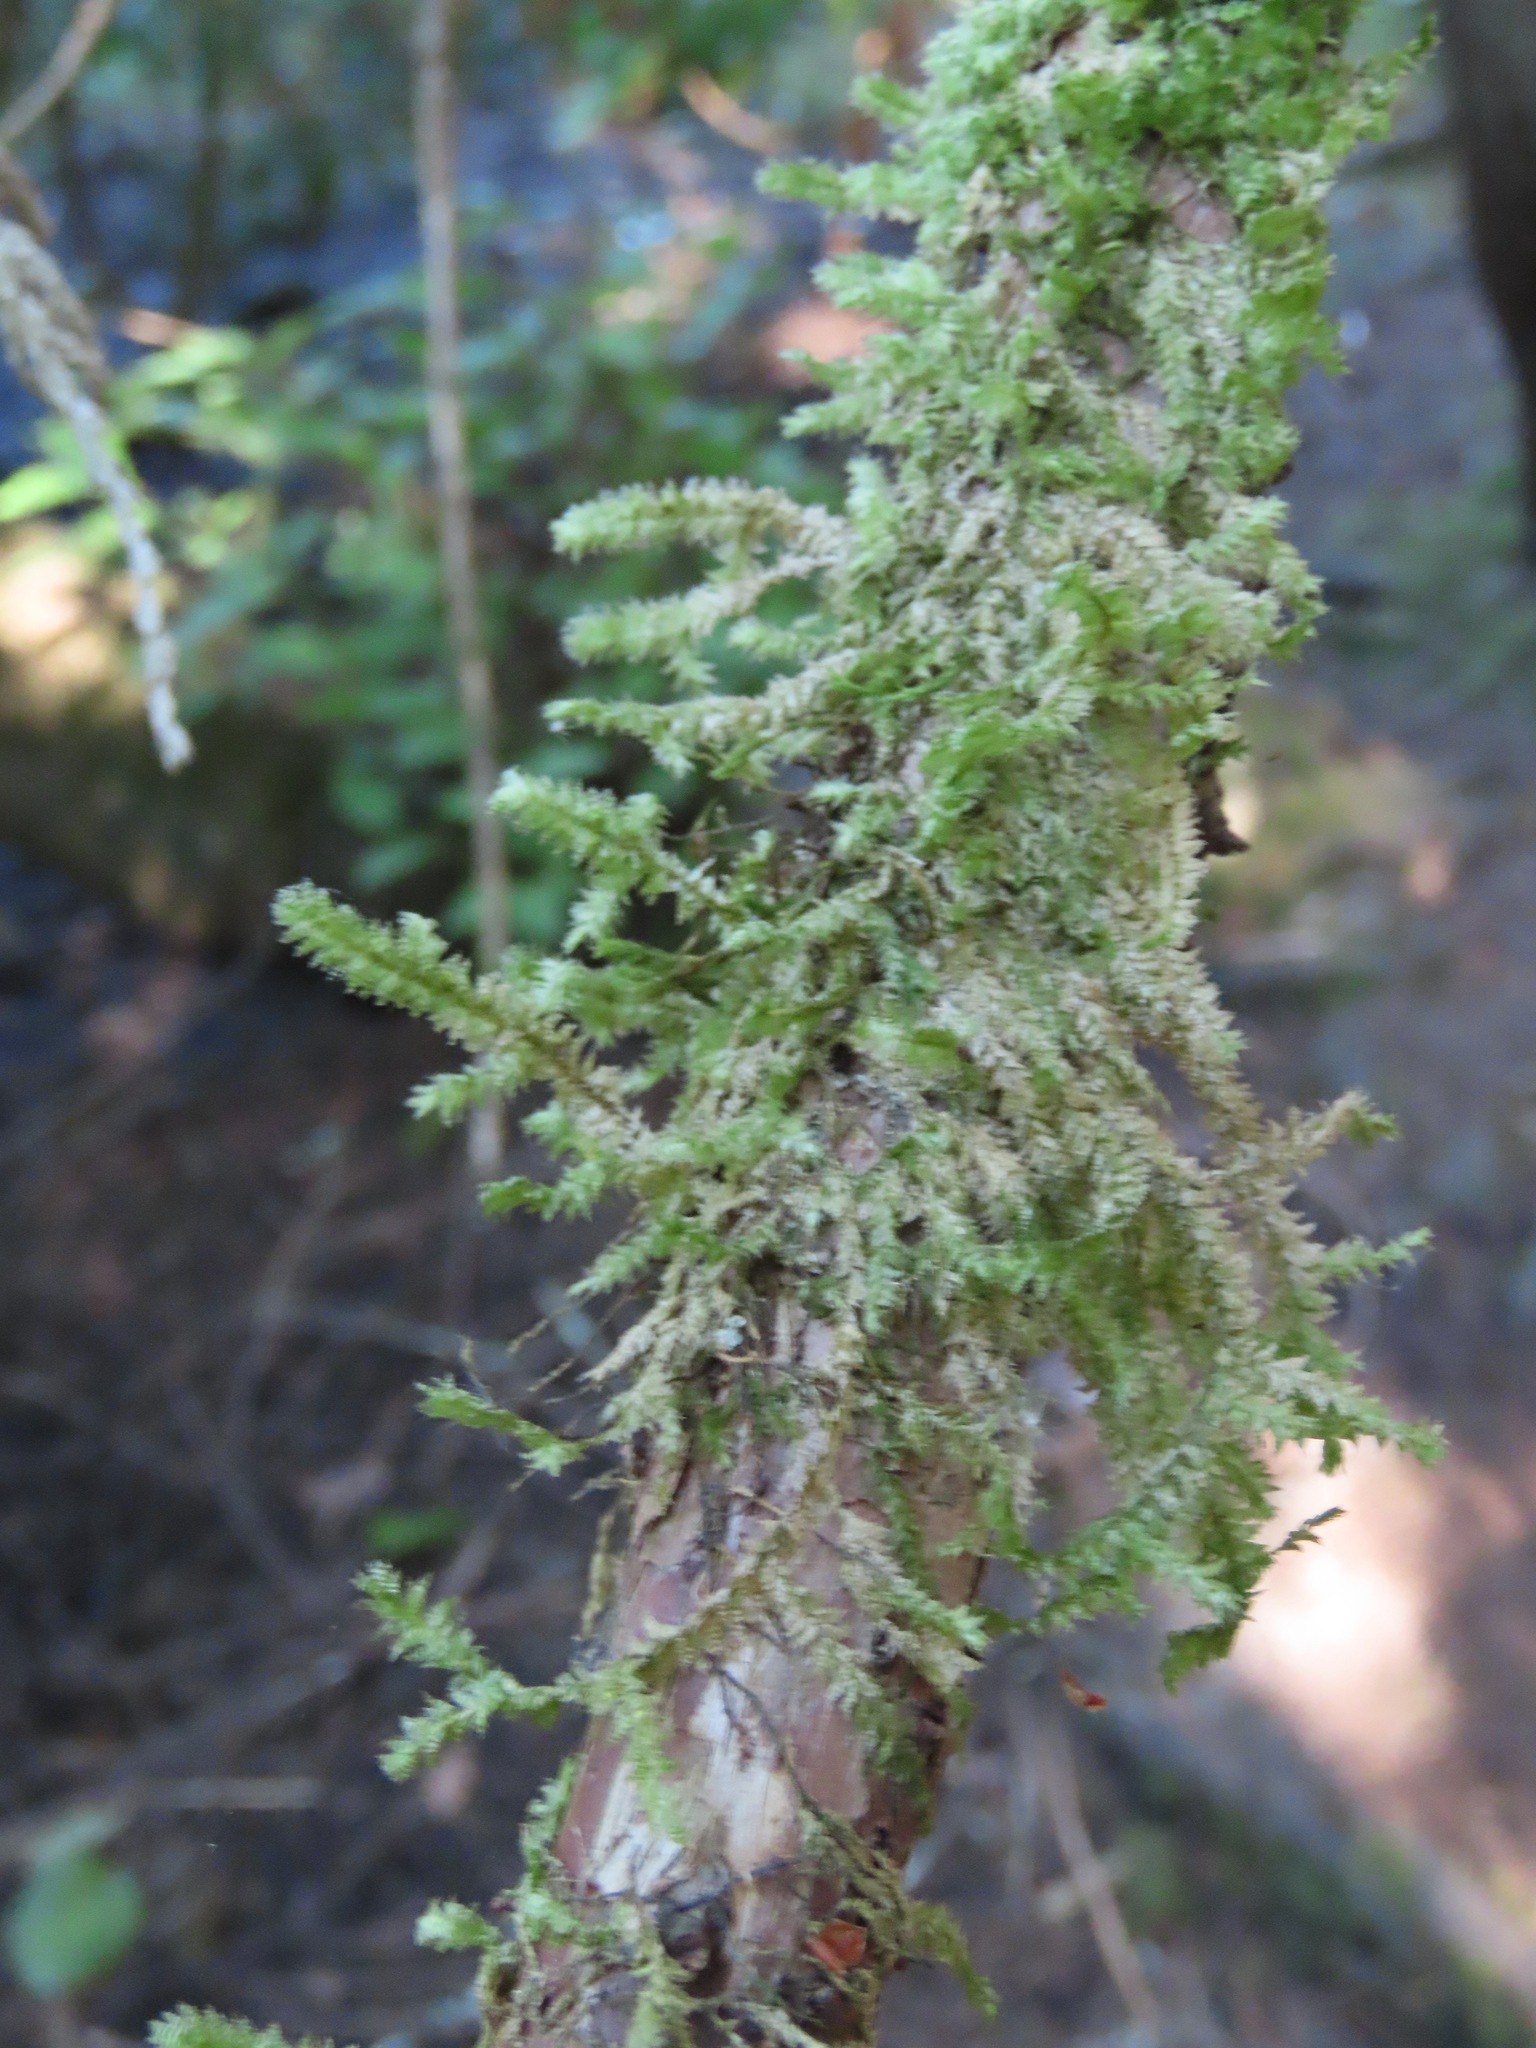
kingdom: Plantae
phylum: Bryophyta
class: Bryopsida
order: Hypnales
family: Neckeraceae
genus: Neckera
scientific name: Neckera douglasii
